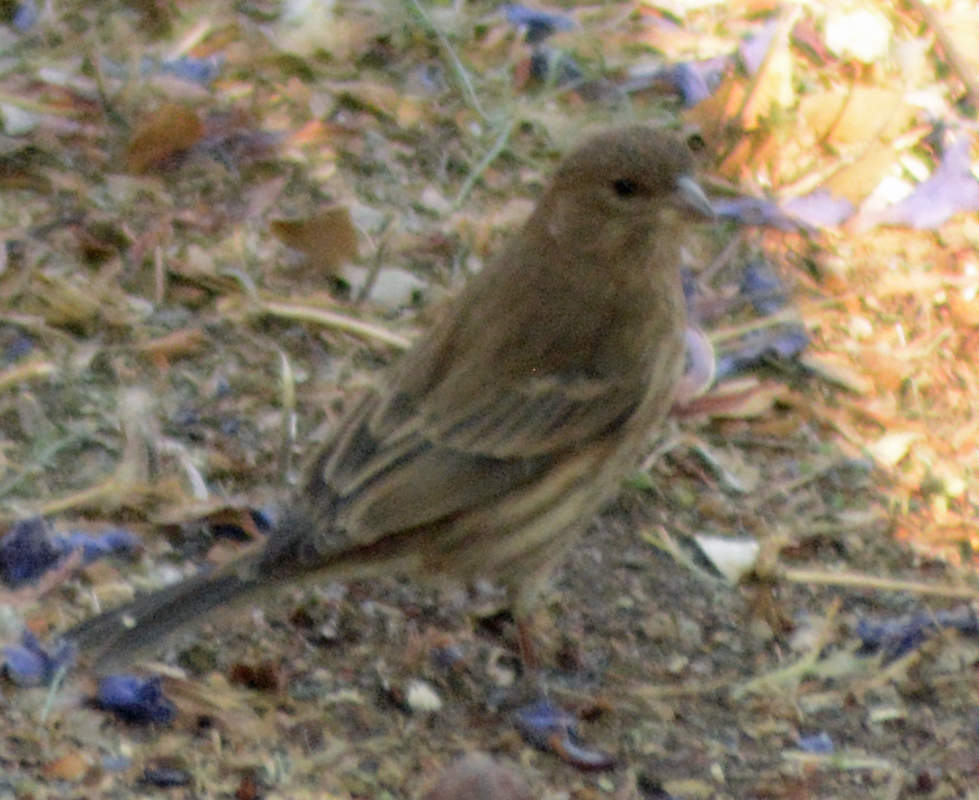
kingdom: Animalia
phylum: Chordata
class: Aves
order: Passeriformes
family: Fringillidae
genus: Haemorhous
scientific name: Haemorhous mexicanus
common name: House finch
